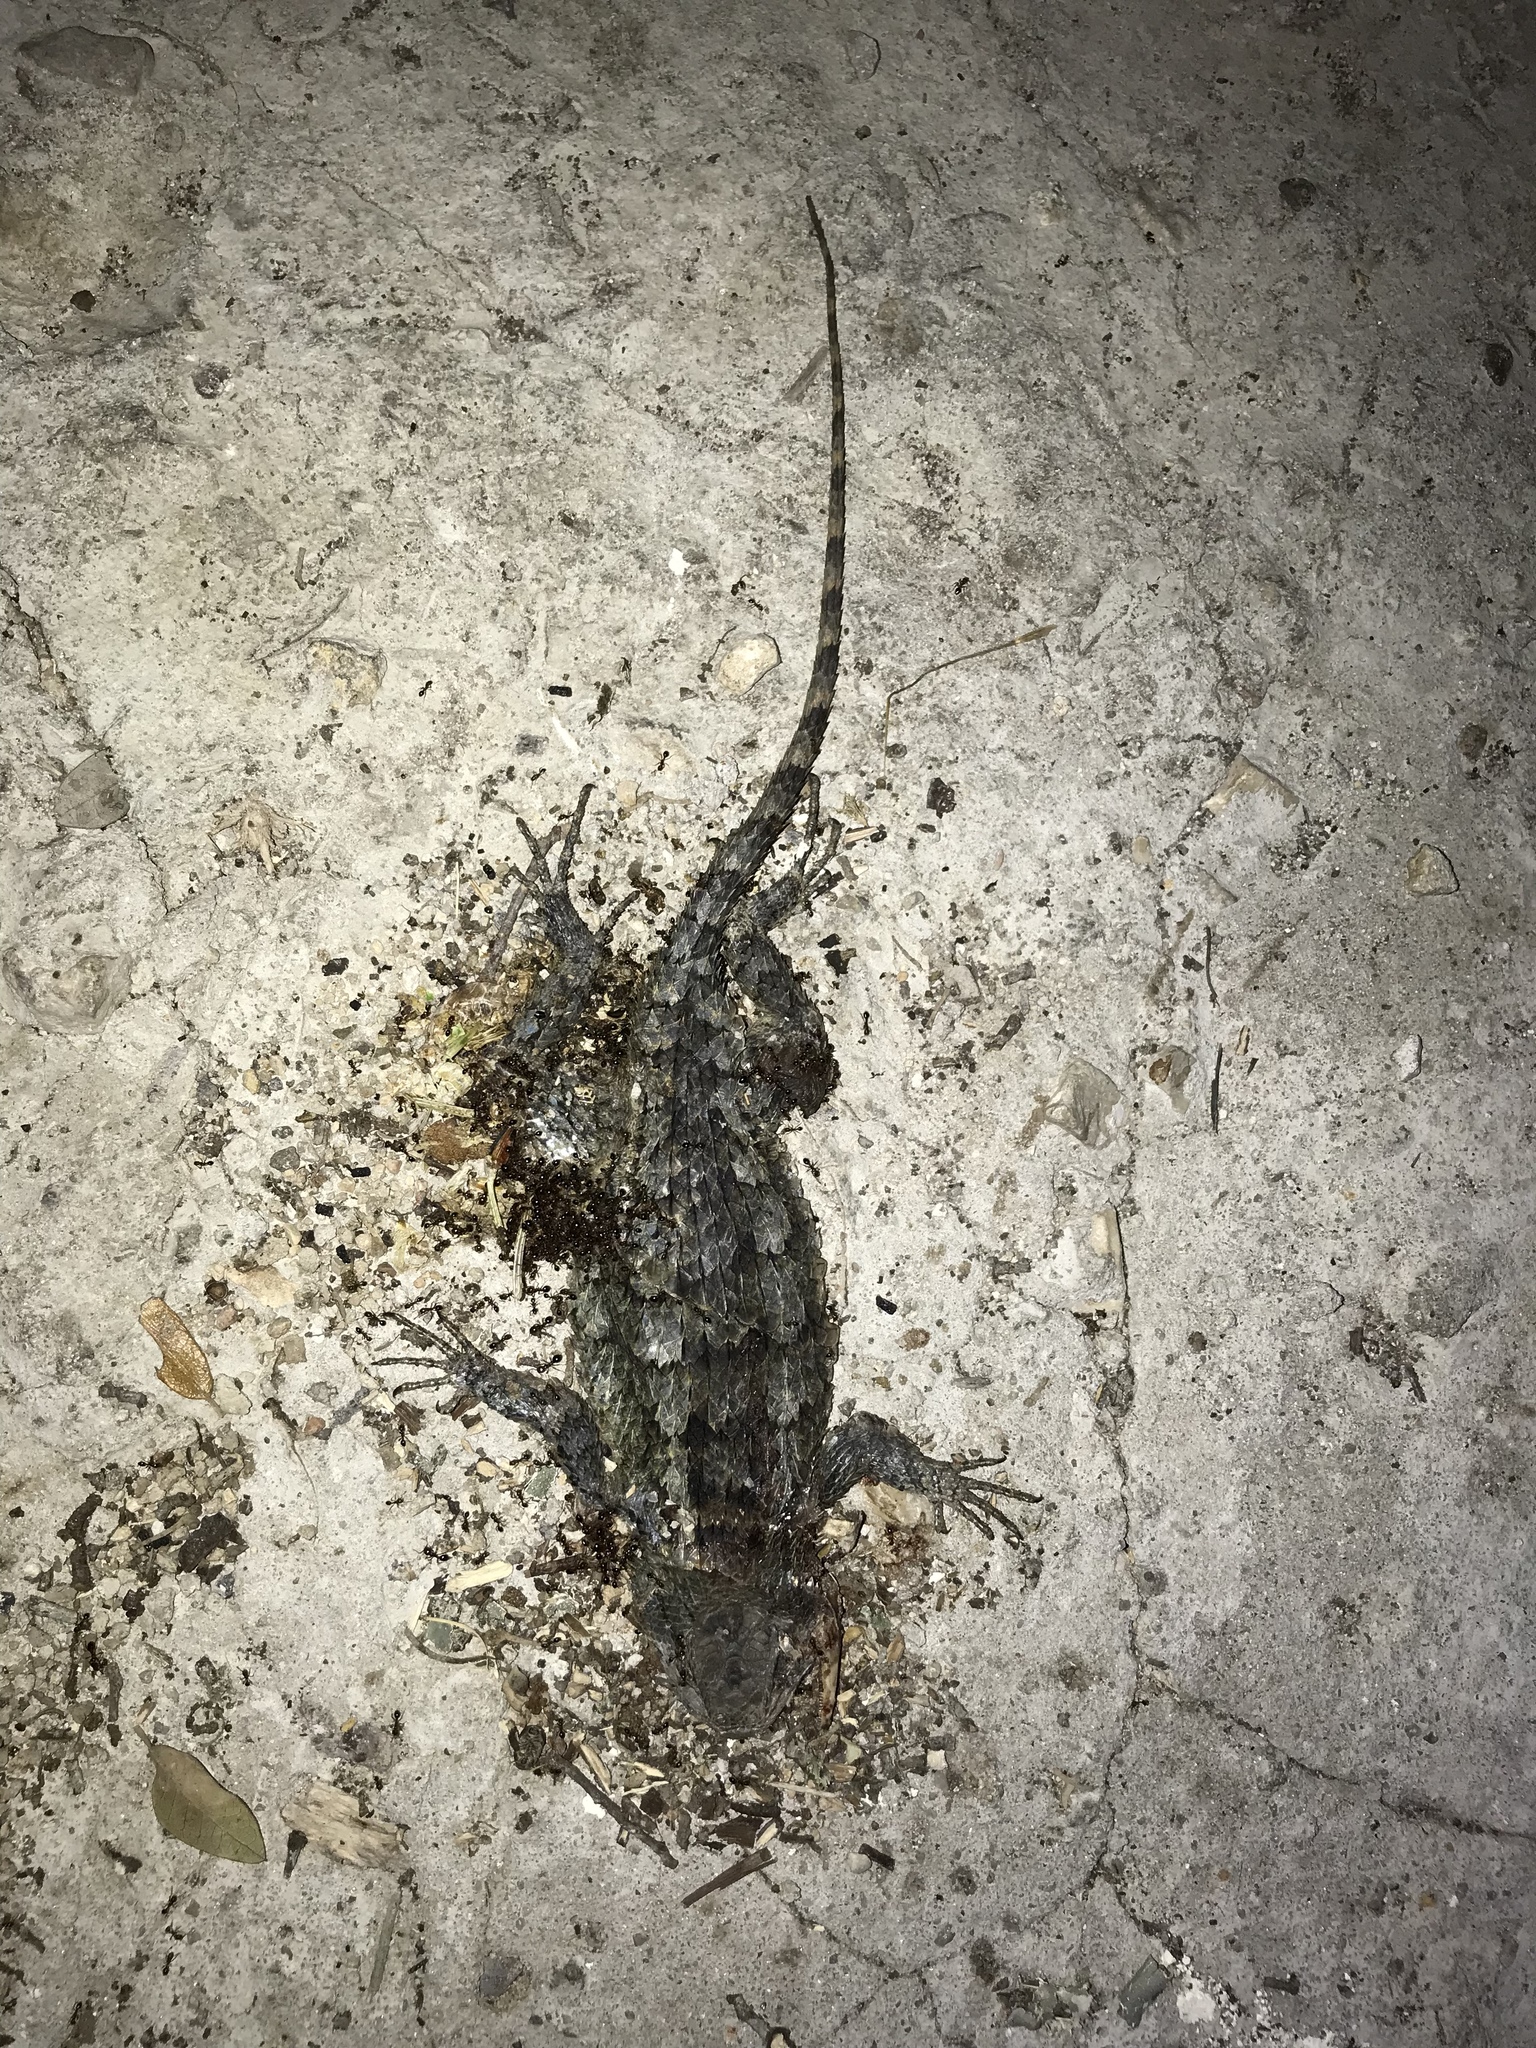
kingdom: Animalia
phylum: Chordata
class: Squamata
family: Phrynosomatidae
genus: Sceloporus
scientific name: Sceloporus olivaceus
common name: Texas spiny lizard
